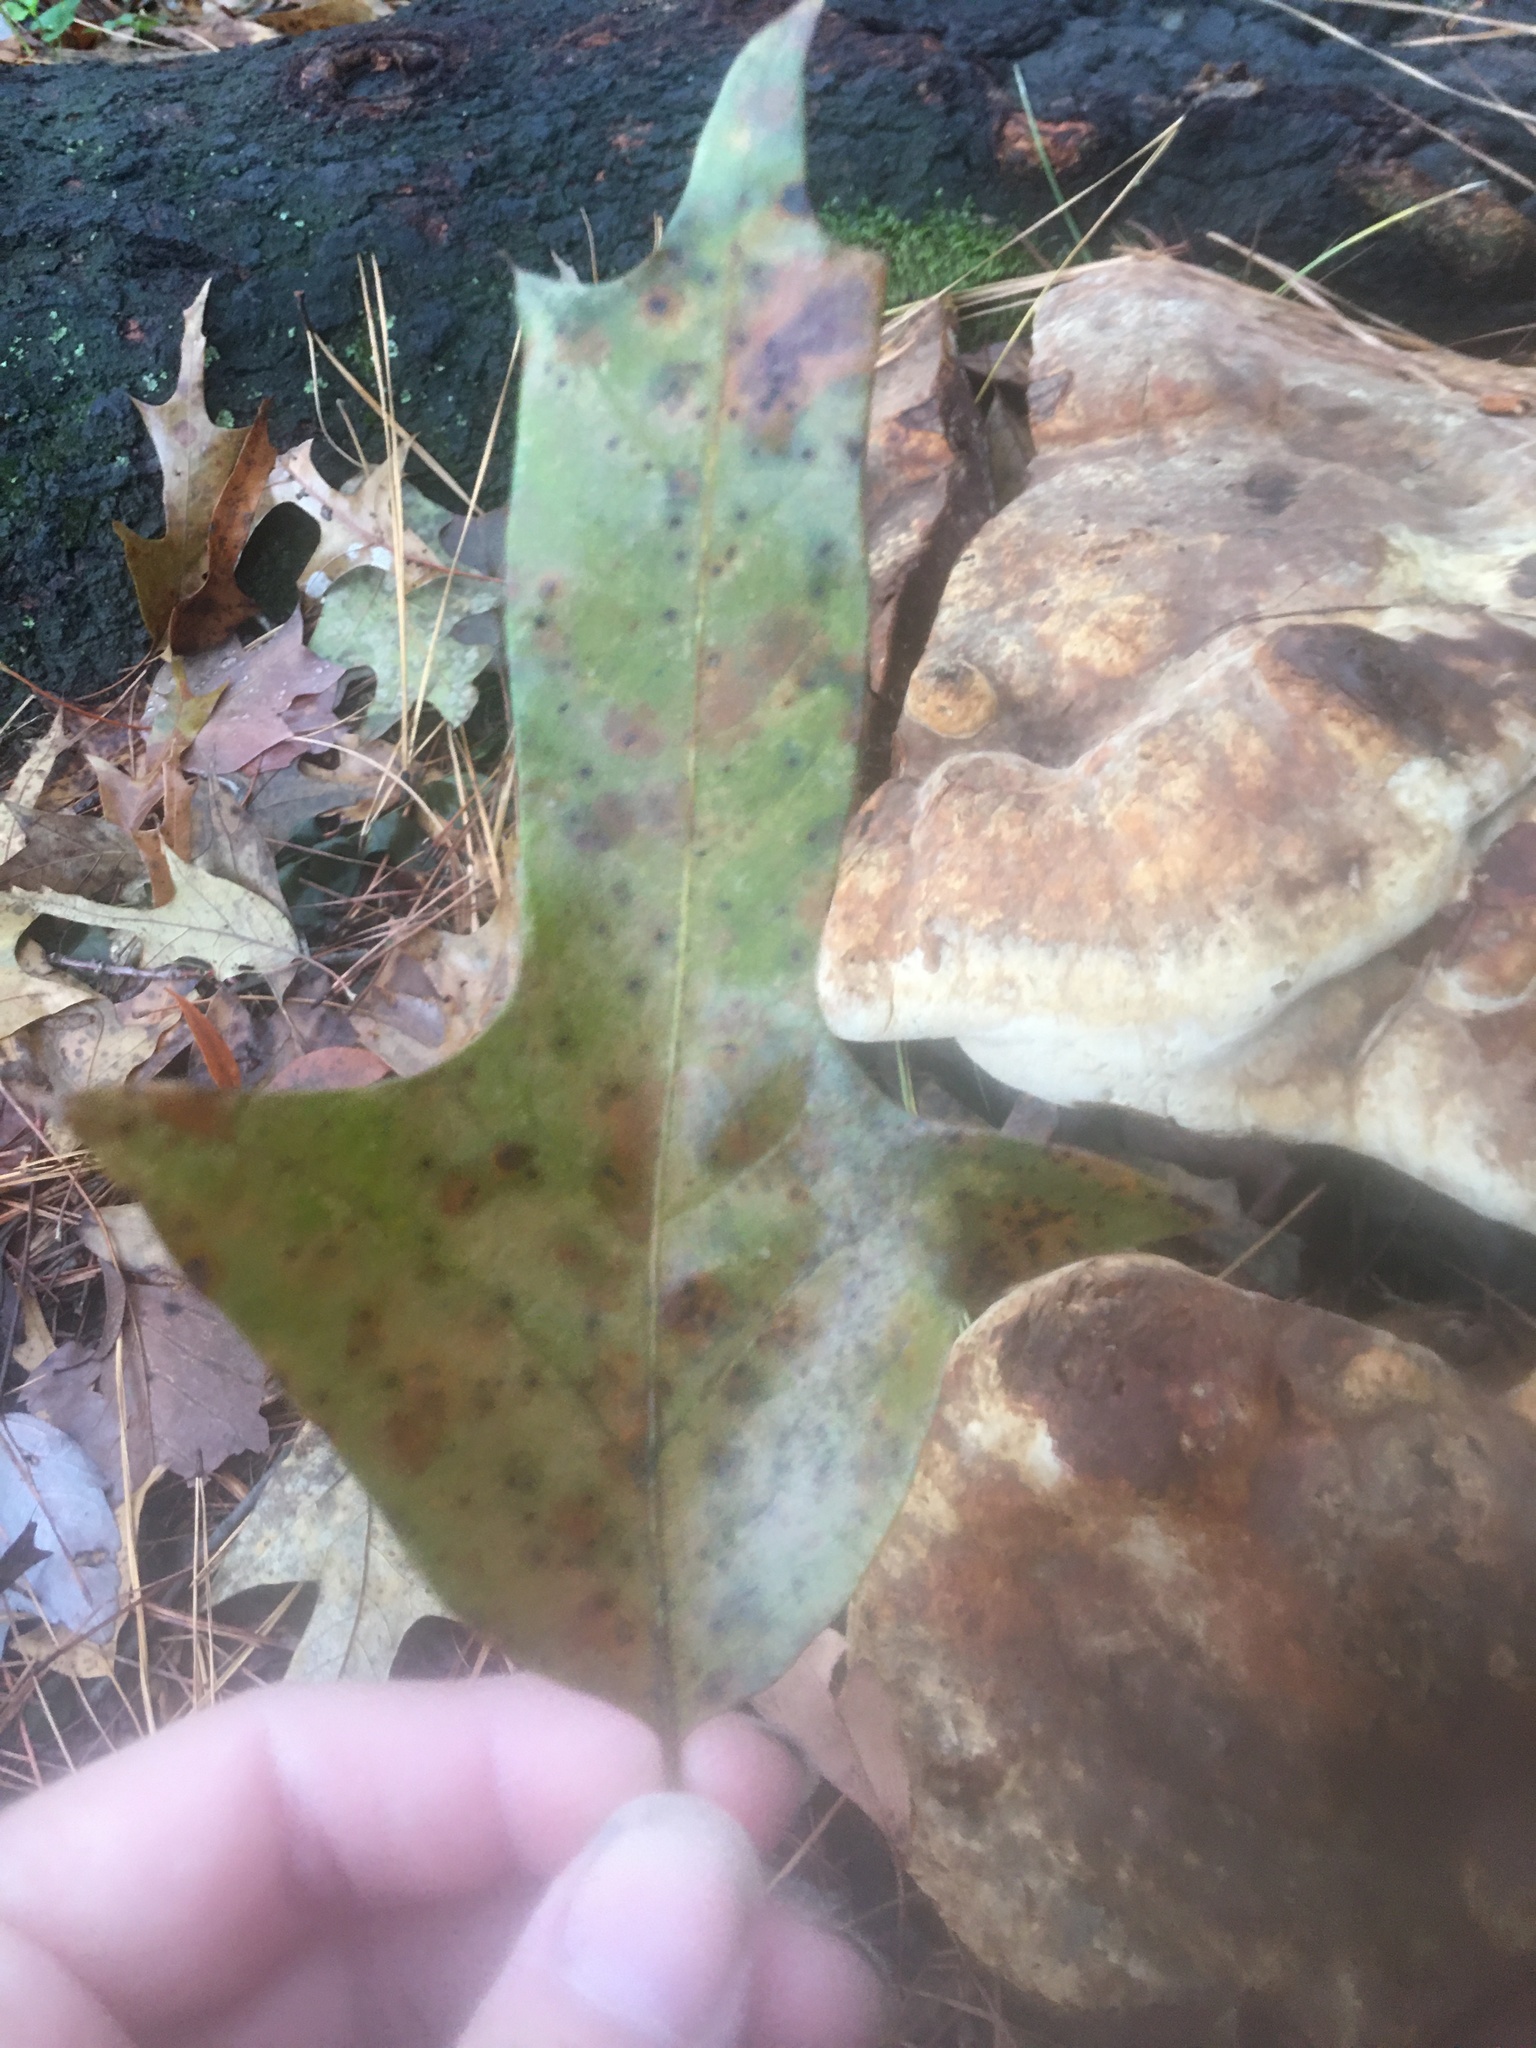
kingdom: Plantae
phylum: Tracheophyta
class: Magnoliopsida
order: Fagales
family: Fagaceae
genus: Quercus
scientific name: Quercus falcata
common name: Southern red oak
